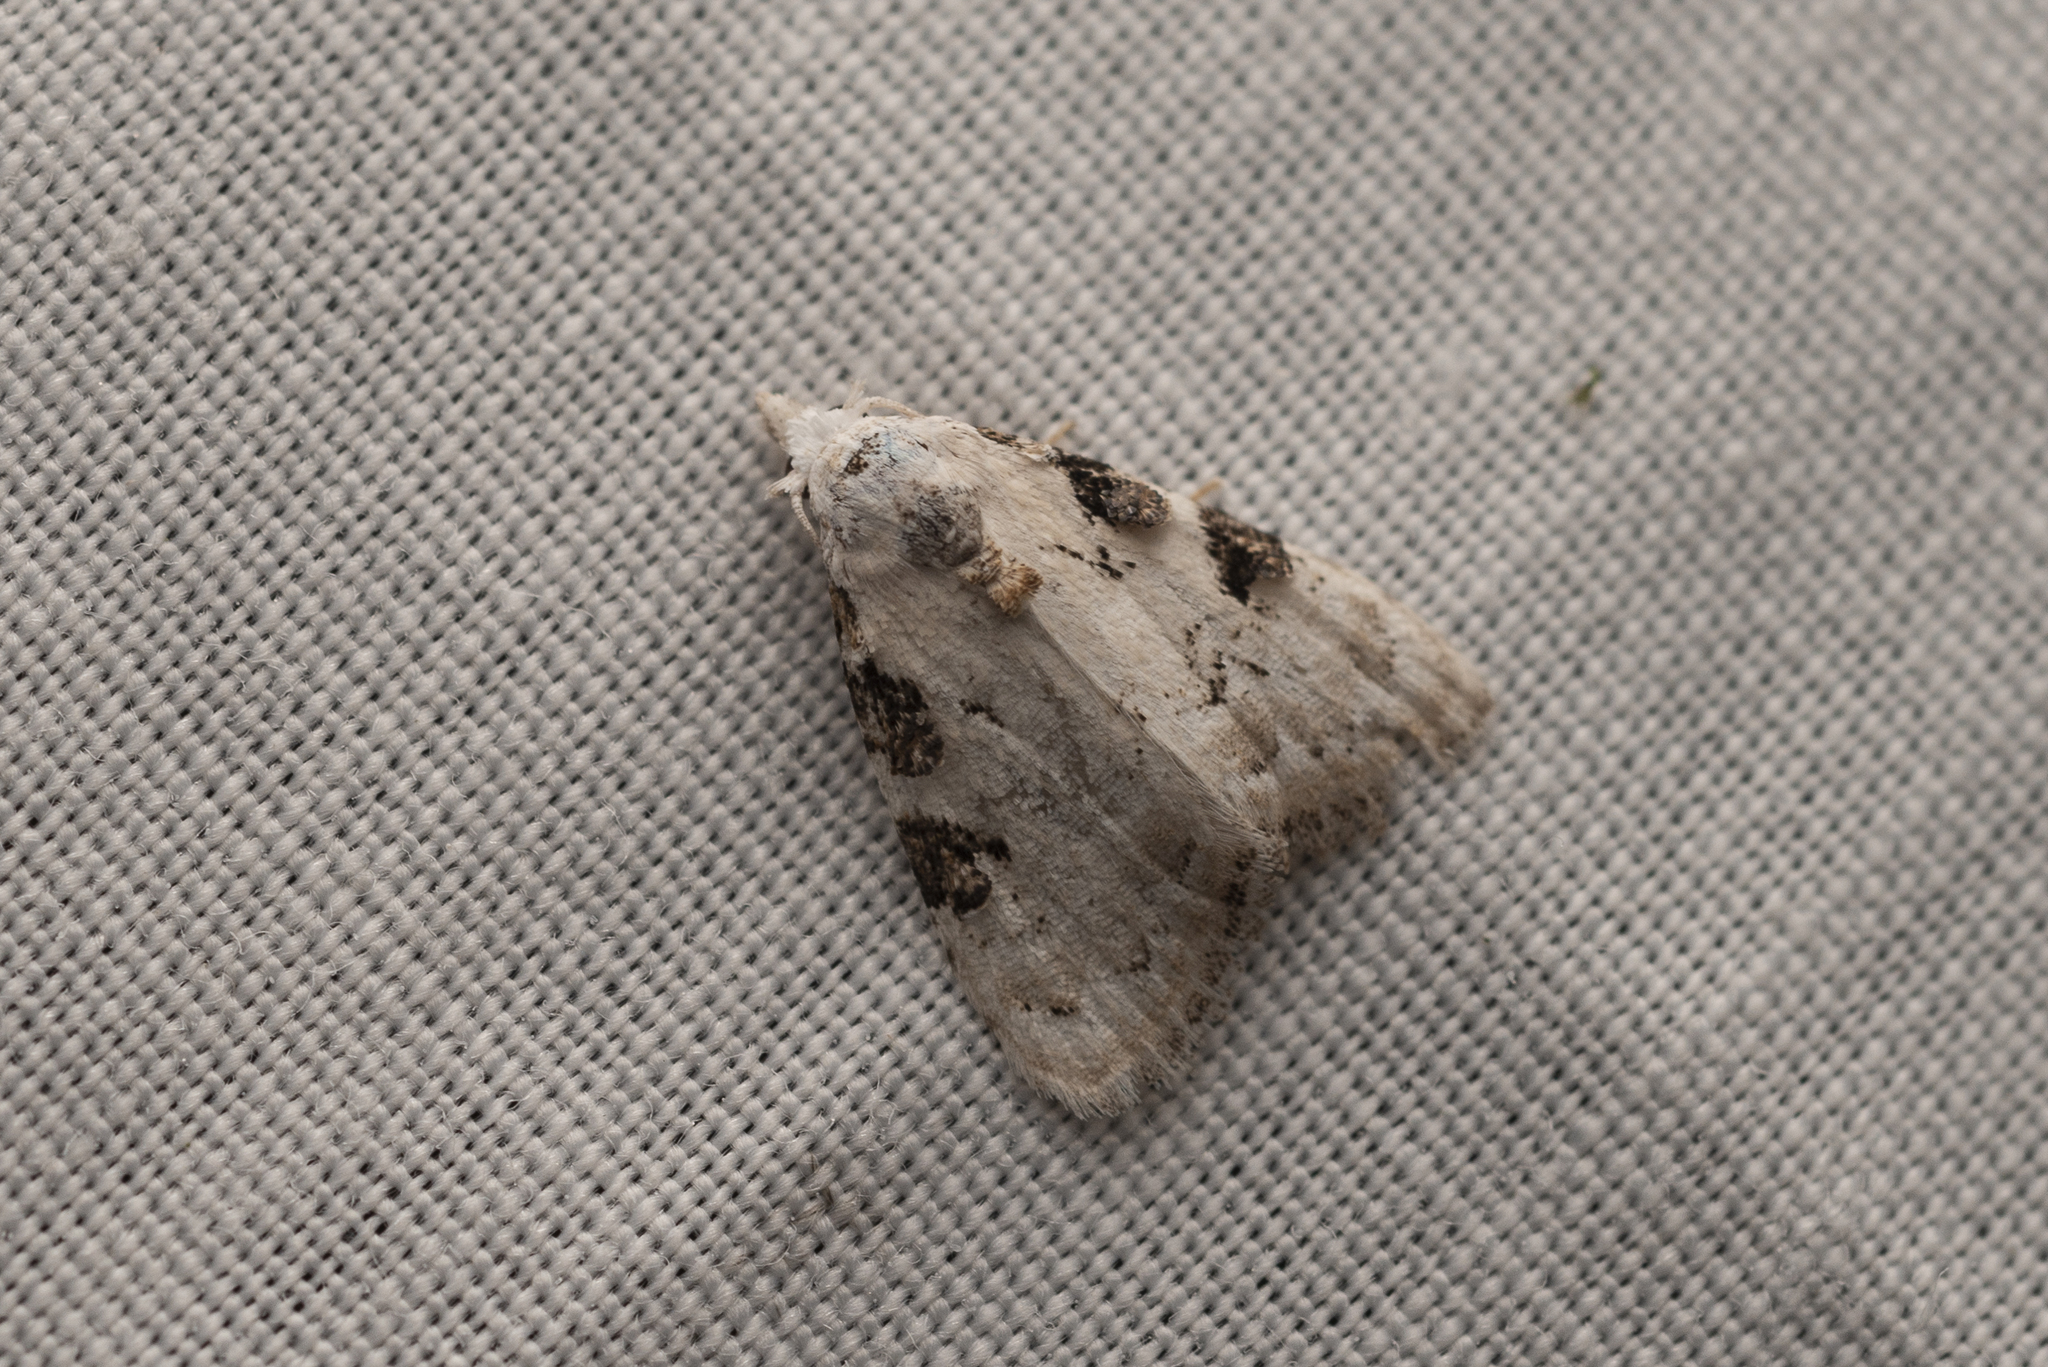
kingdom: Animalia
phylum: Arthropoda
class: Insecta
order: Lepidoptera
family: Nolidae
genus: Nola
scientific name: Nola pascua
